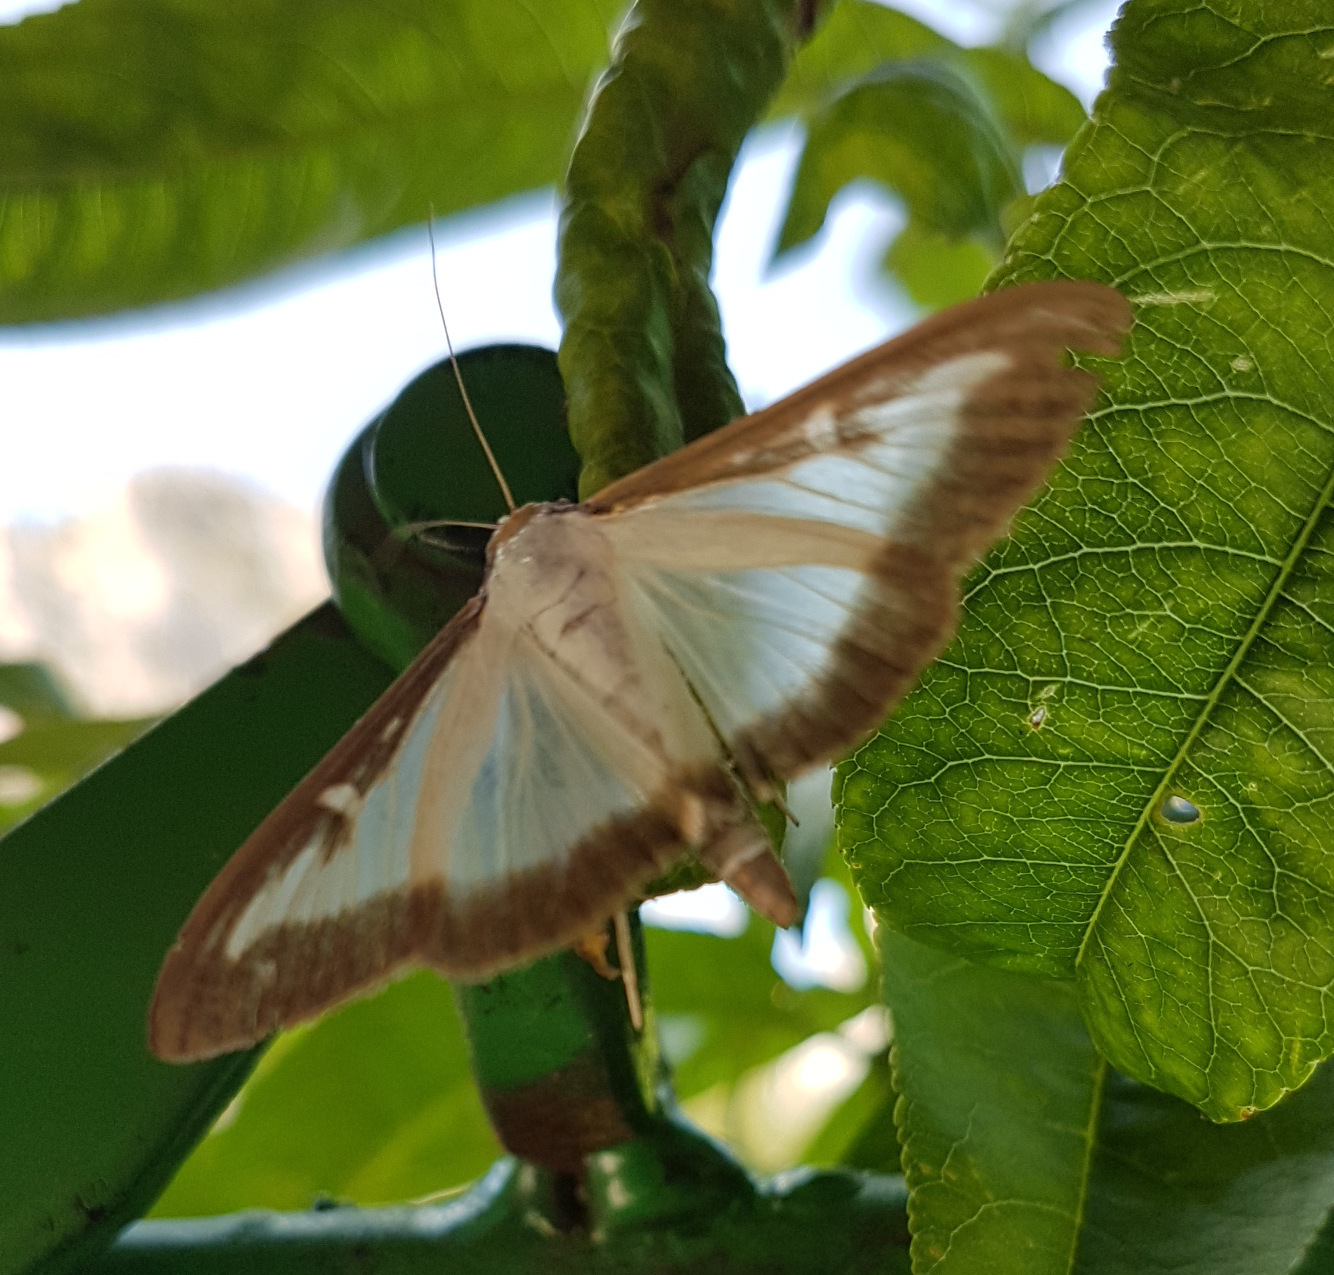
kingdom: Animalia
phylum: Arthropoda
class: Insecta
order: Lepidoptera
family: Crambidae
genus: Cydalima
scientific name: Cydalima perspectalis
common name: Box tree moth
